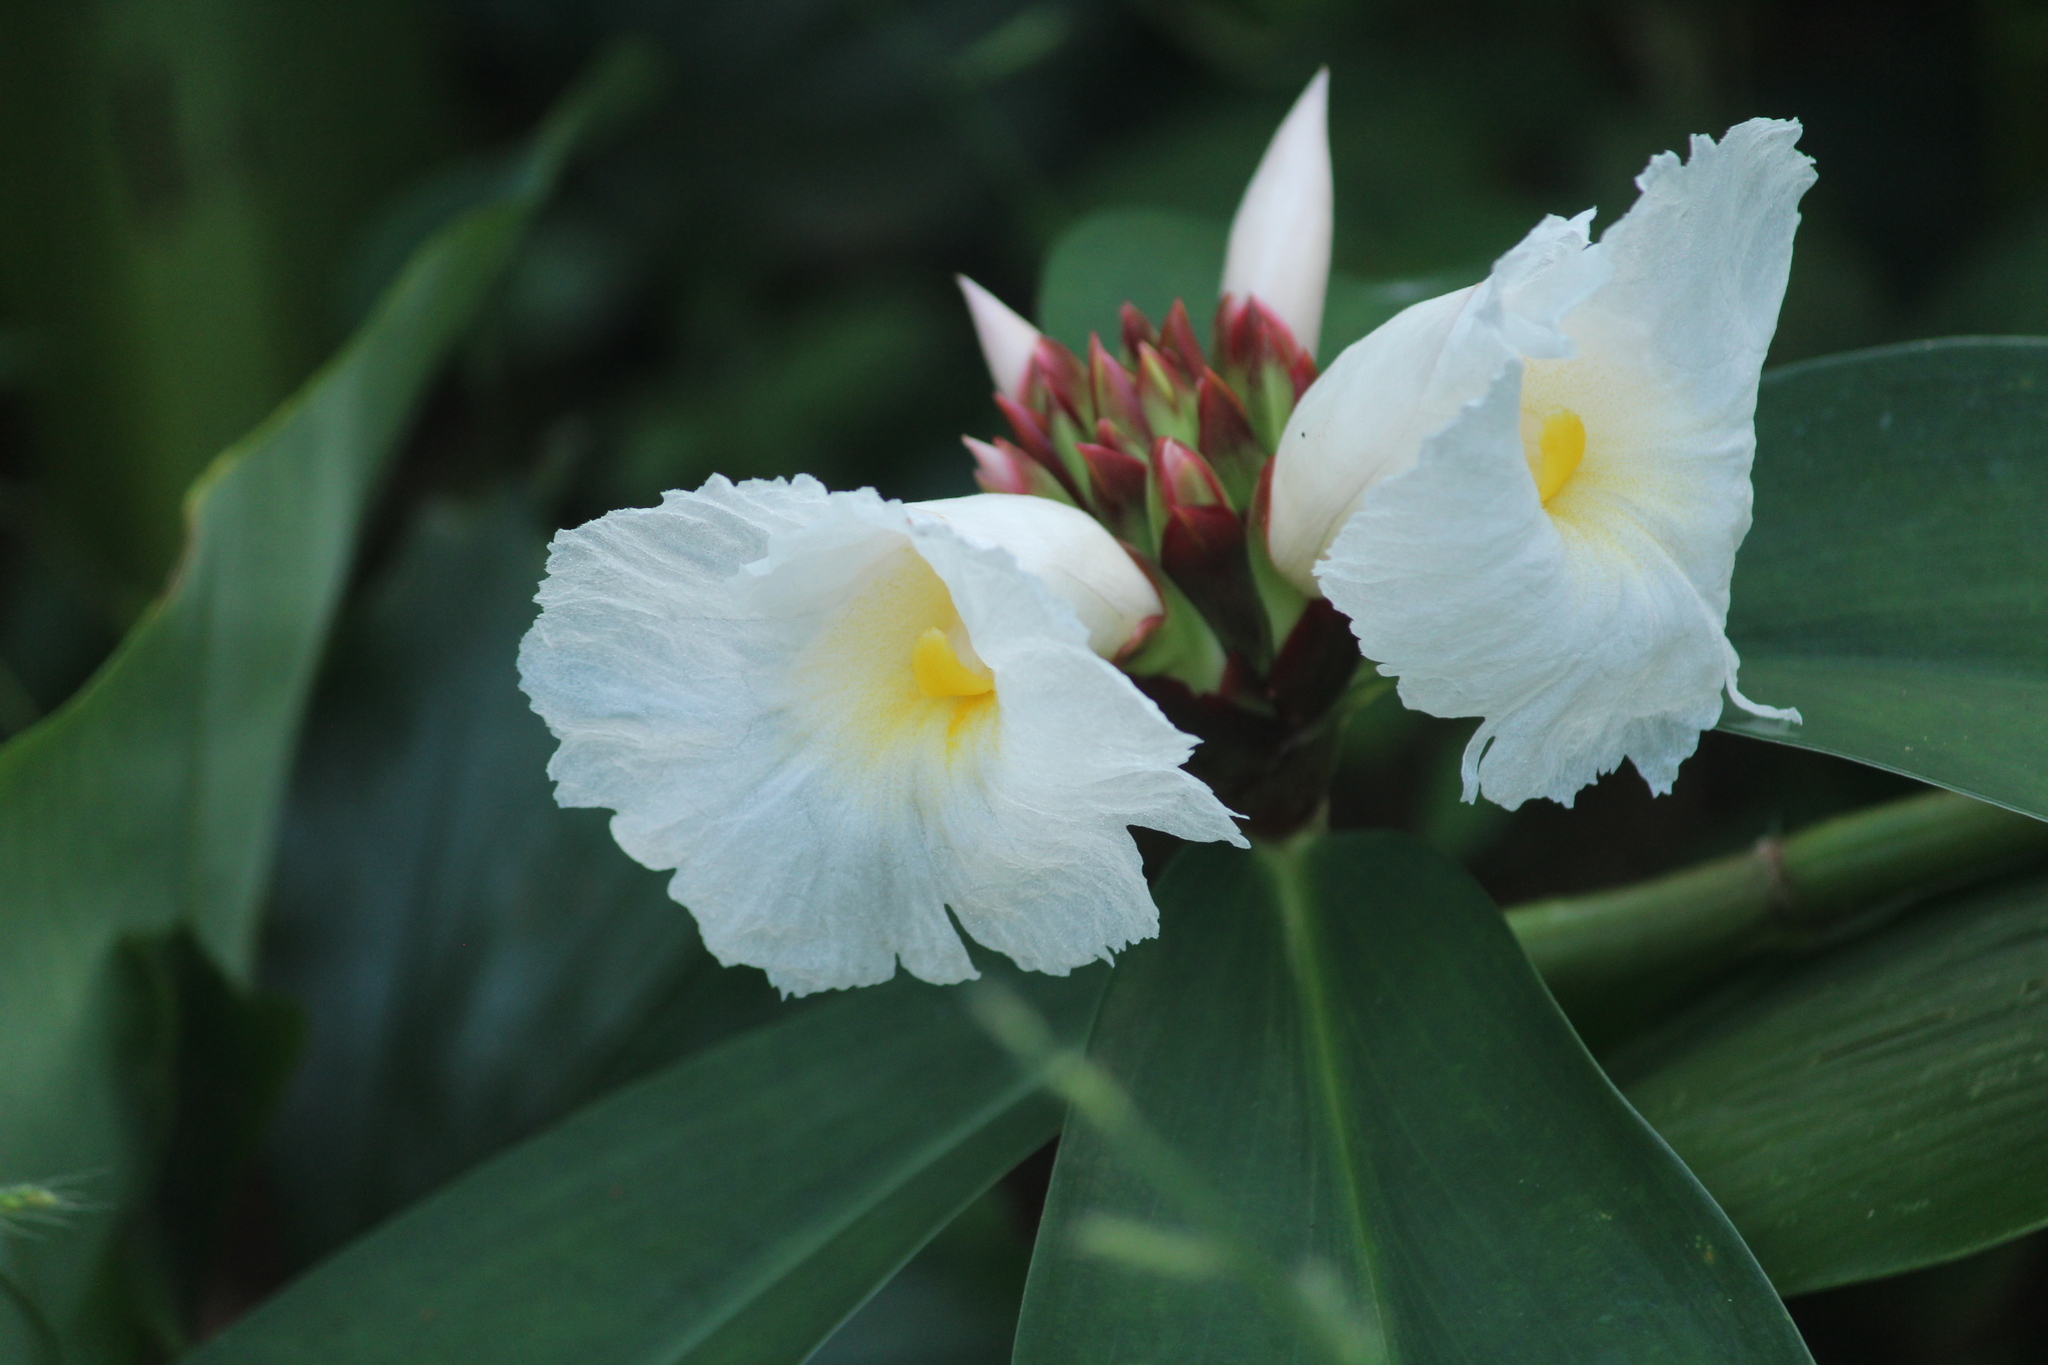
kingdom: Plantae
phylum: Tracheophyta
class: Liliopsida
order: Zingiberales
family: Costaceae
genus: Hellenia
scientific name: Hellenia speciosa
